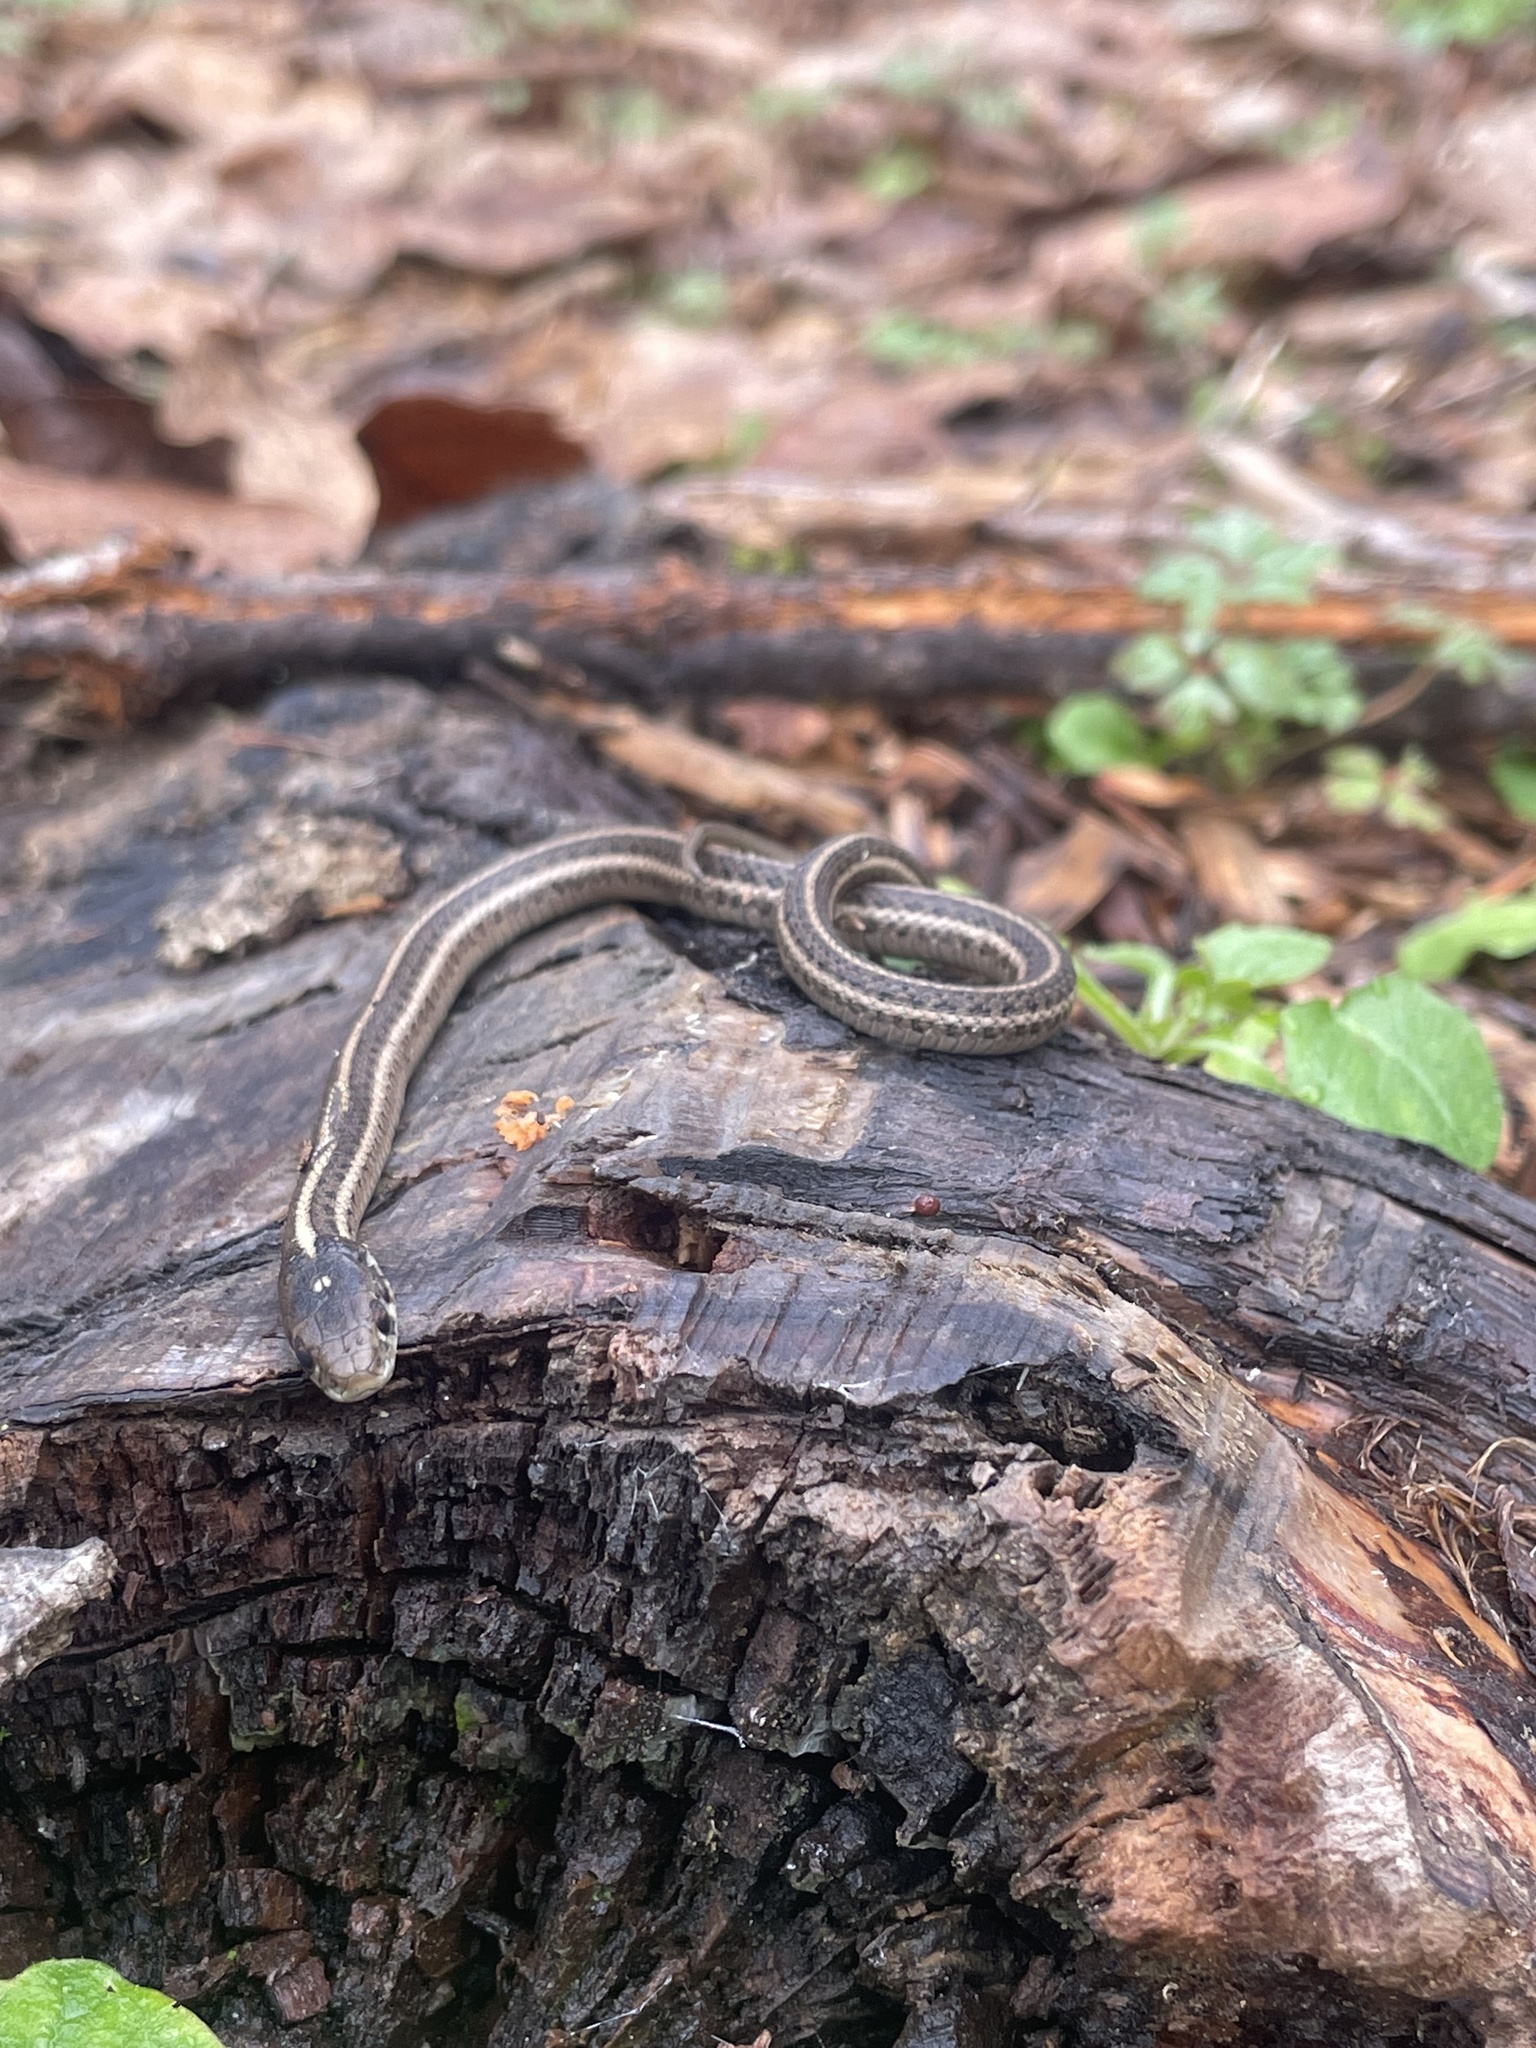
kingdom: Animalia
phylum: Chordata
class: Squamata
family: Colubridae
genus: Thamnophis
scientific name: Thamnophis ordinoides
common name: Northwestern garter snake
